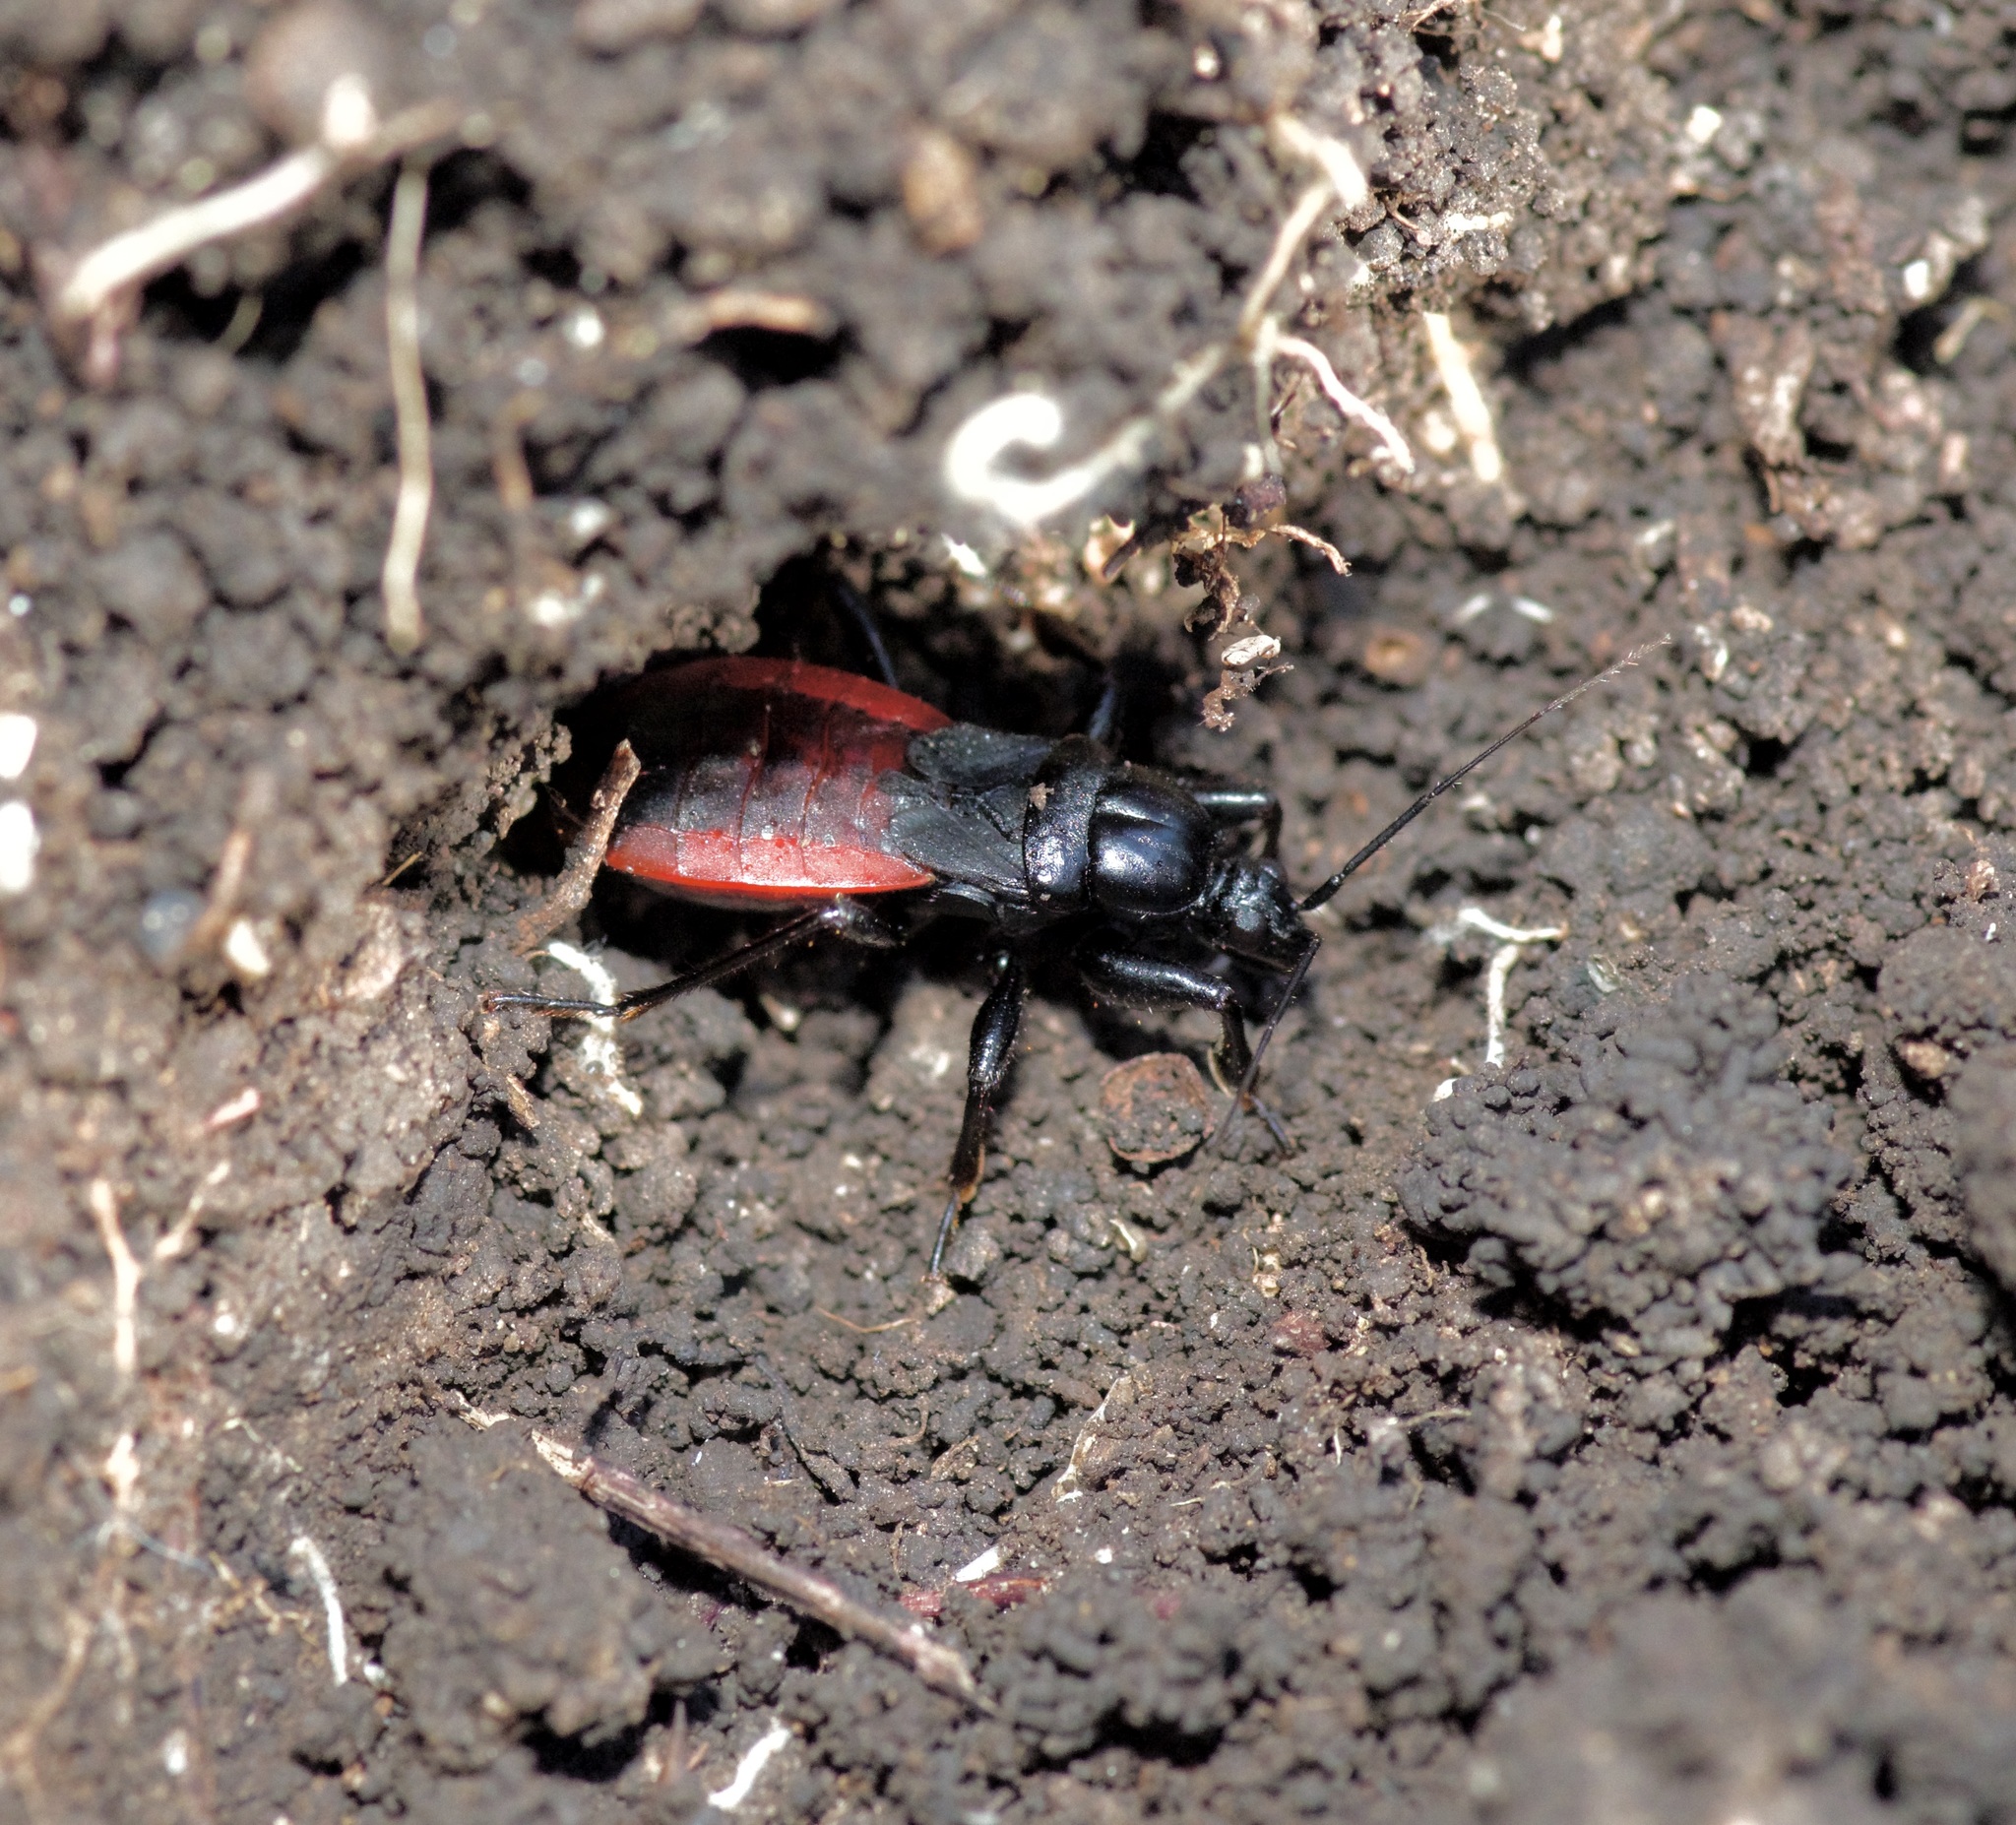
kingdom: Animalia
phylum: Arthropoda
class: Insecta
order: Hemiptera
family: Reduviidae
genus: Melanolestes
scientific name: Melanolestes picipes
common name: Assassin bug
